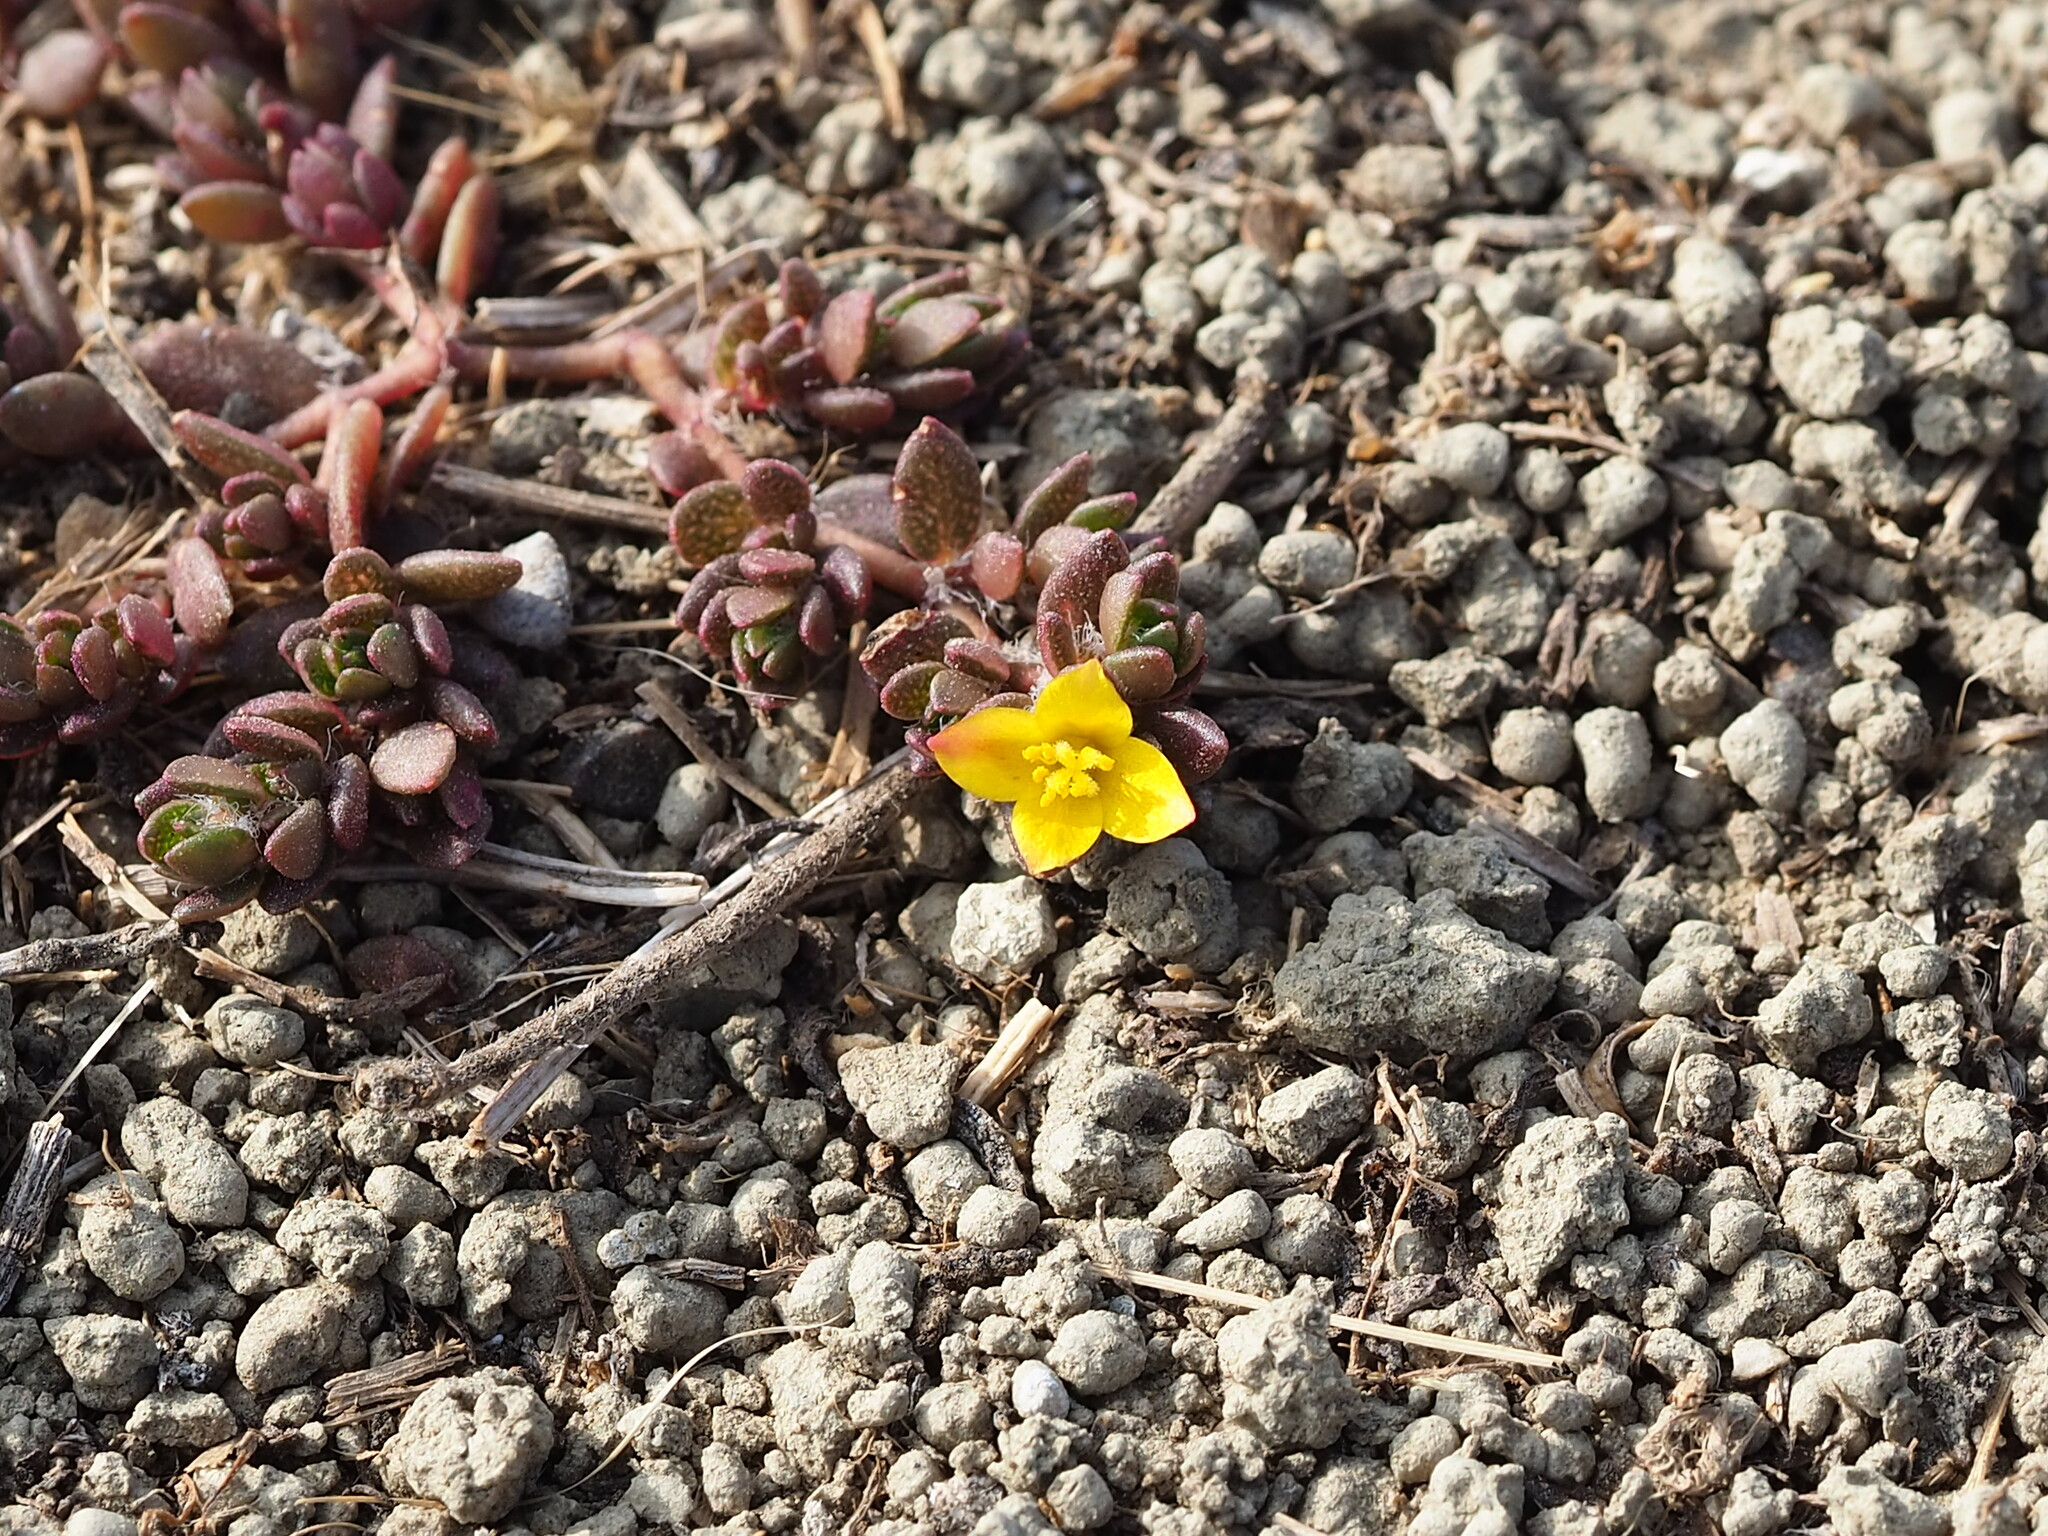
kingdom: Plantae
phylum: Tracheophyta
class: Magnoliopsida
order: Caryophyllales
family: Portulacaceae
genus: Portulaca
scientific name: Portulaca quadrifida
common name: Chickenweed
